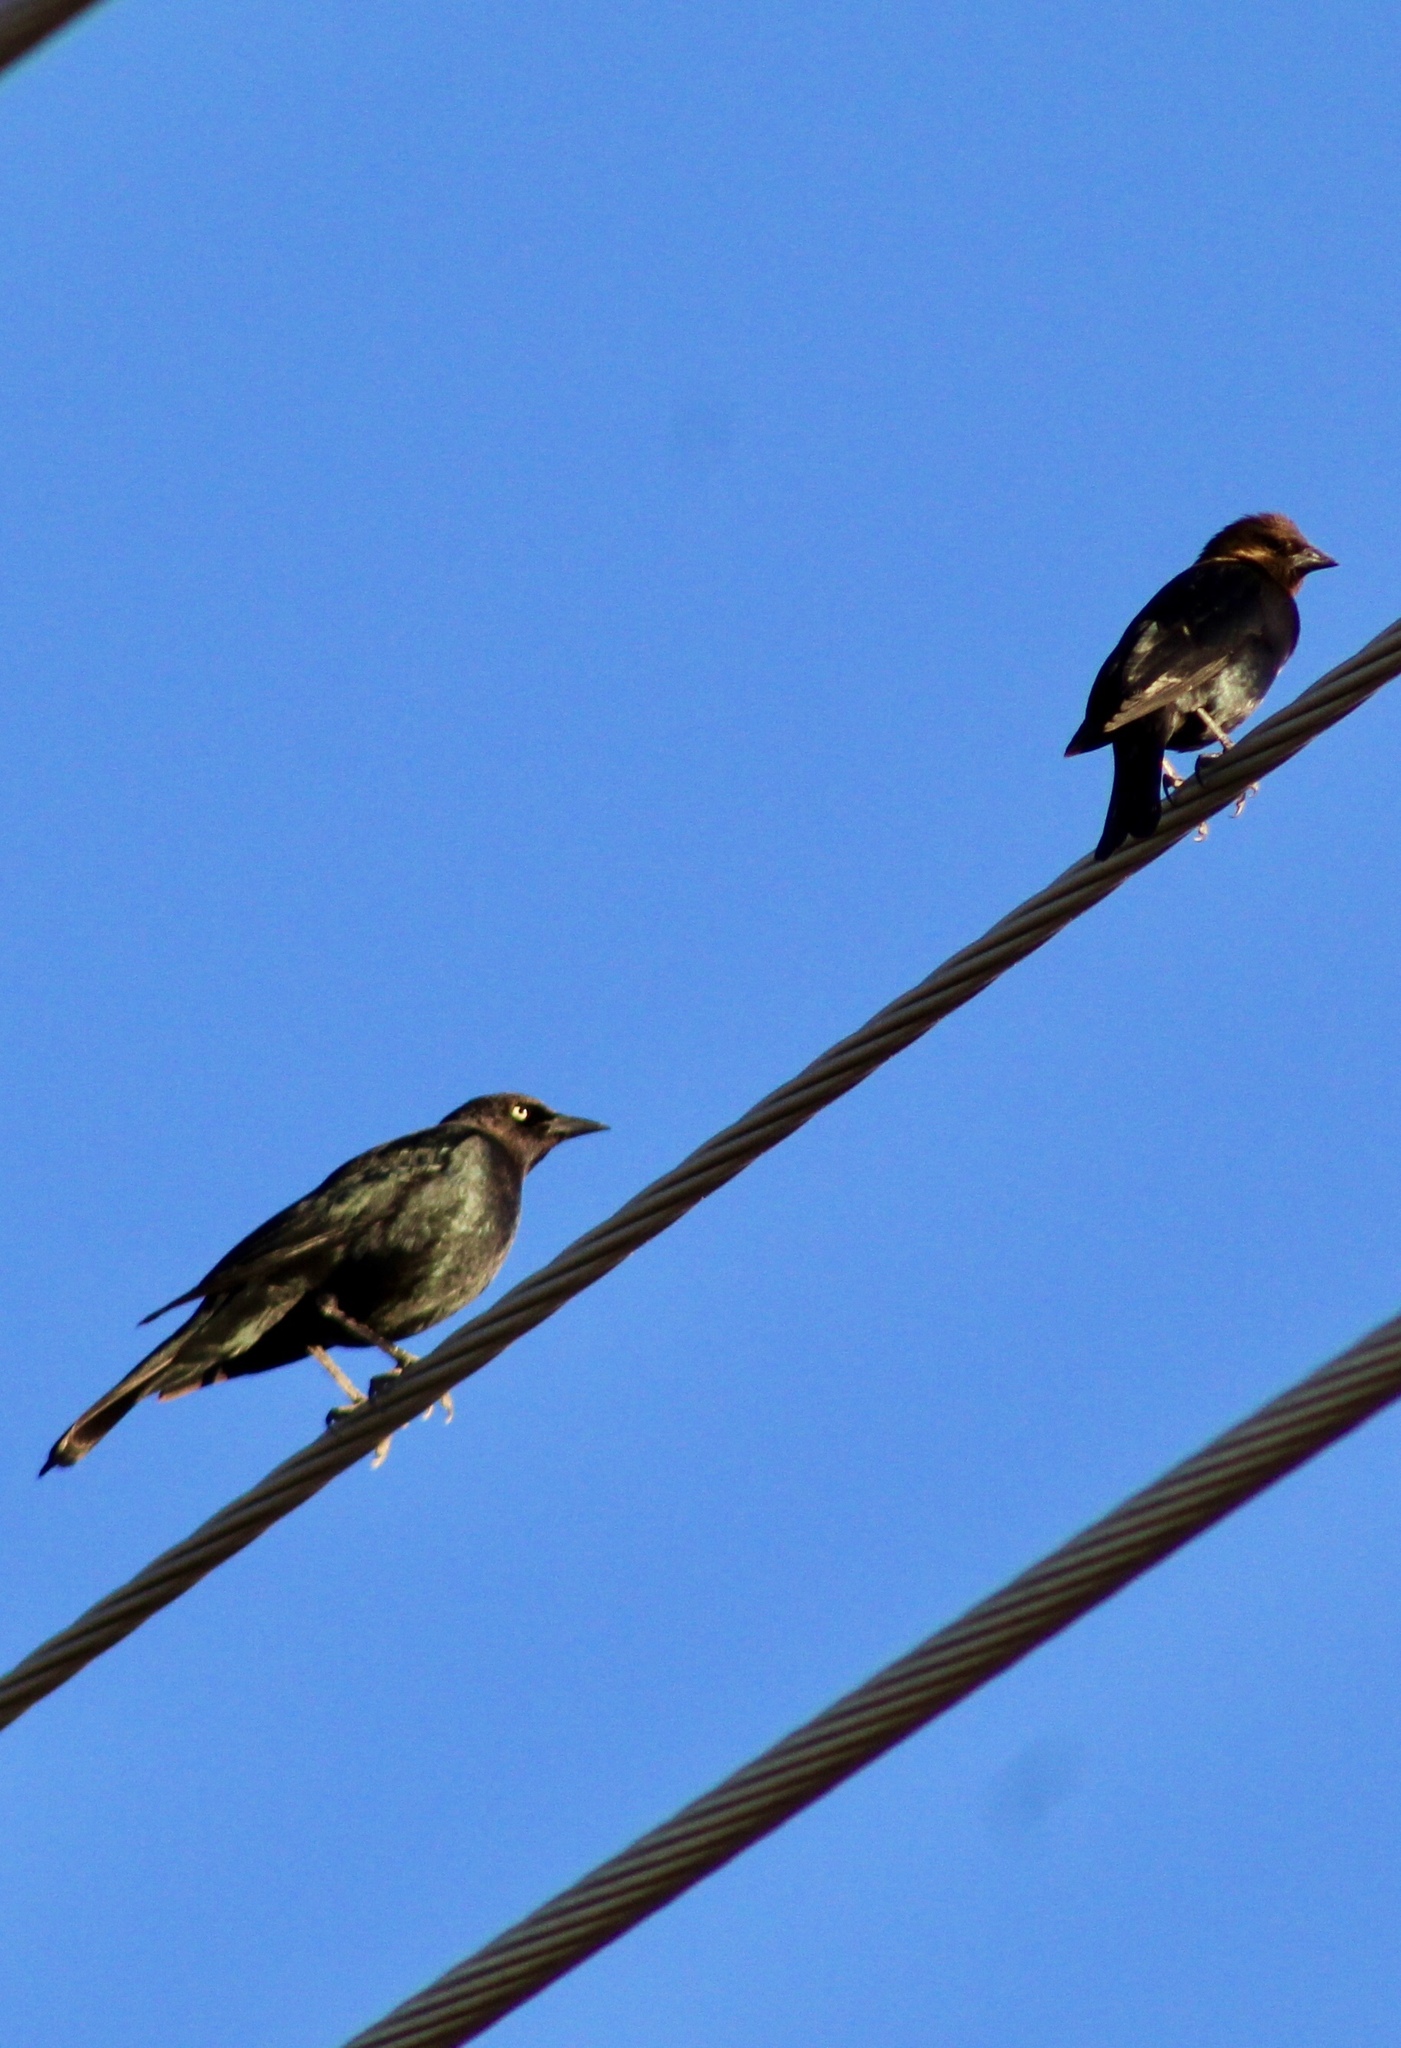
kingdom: Animalia
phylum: Chordata
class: Aves
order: Passeriformes
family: Icteridae
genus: Molothrus
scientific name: Molothrus ater
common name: Brown-headed cowbird
